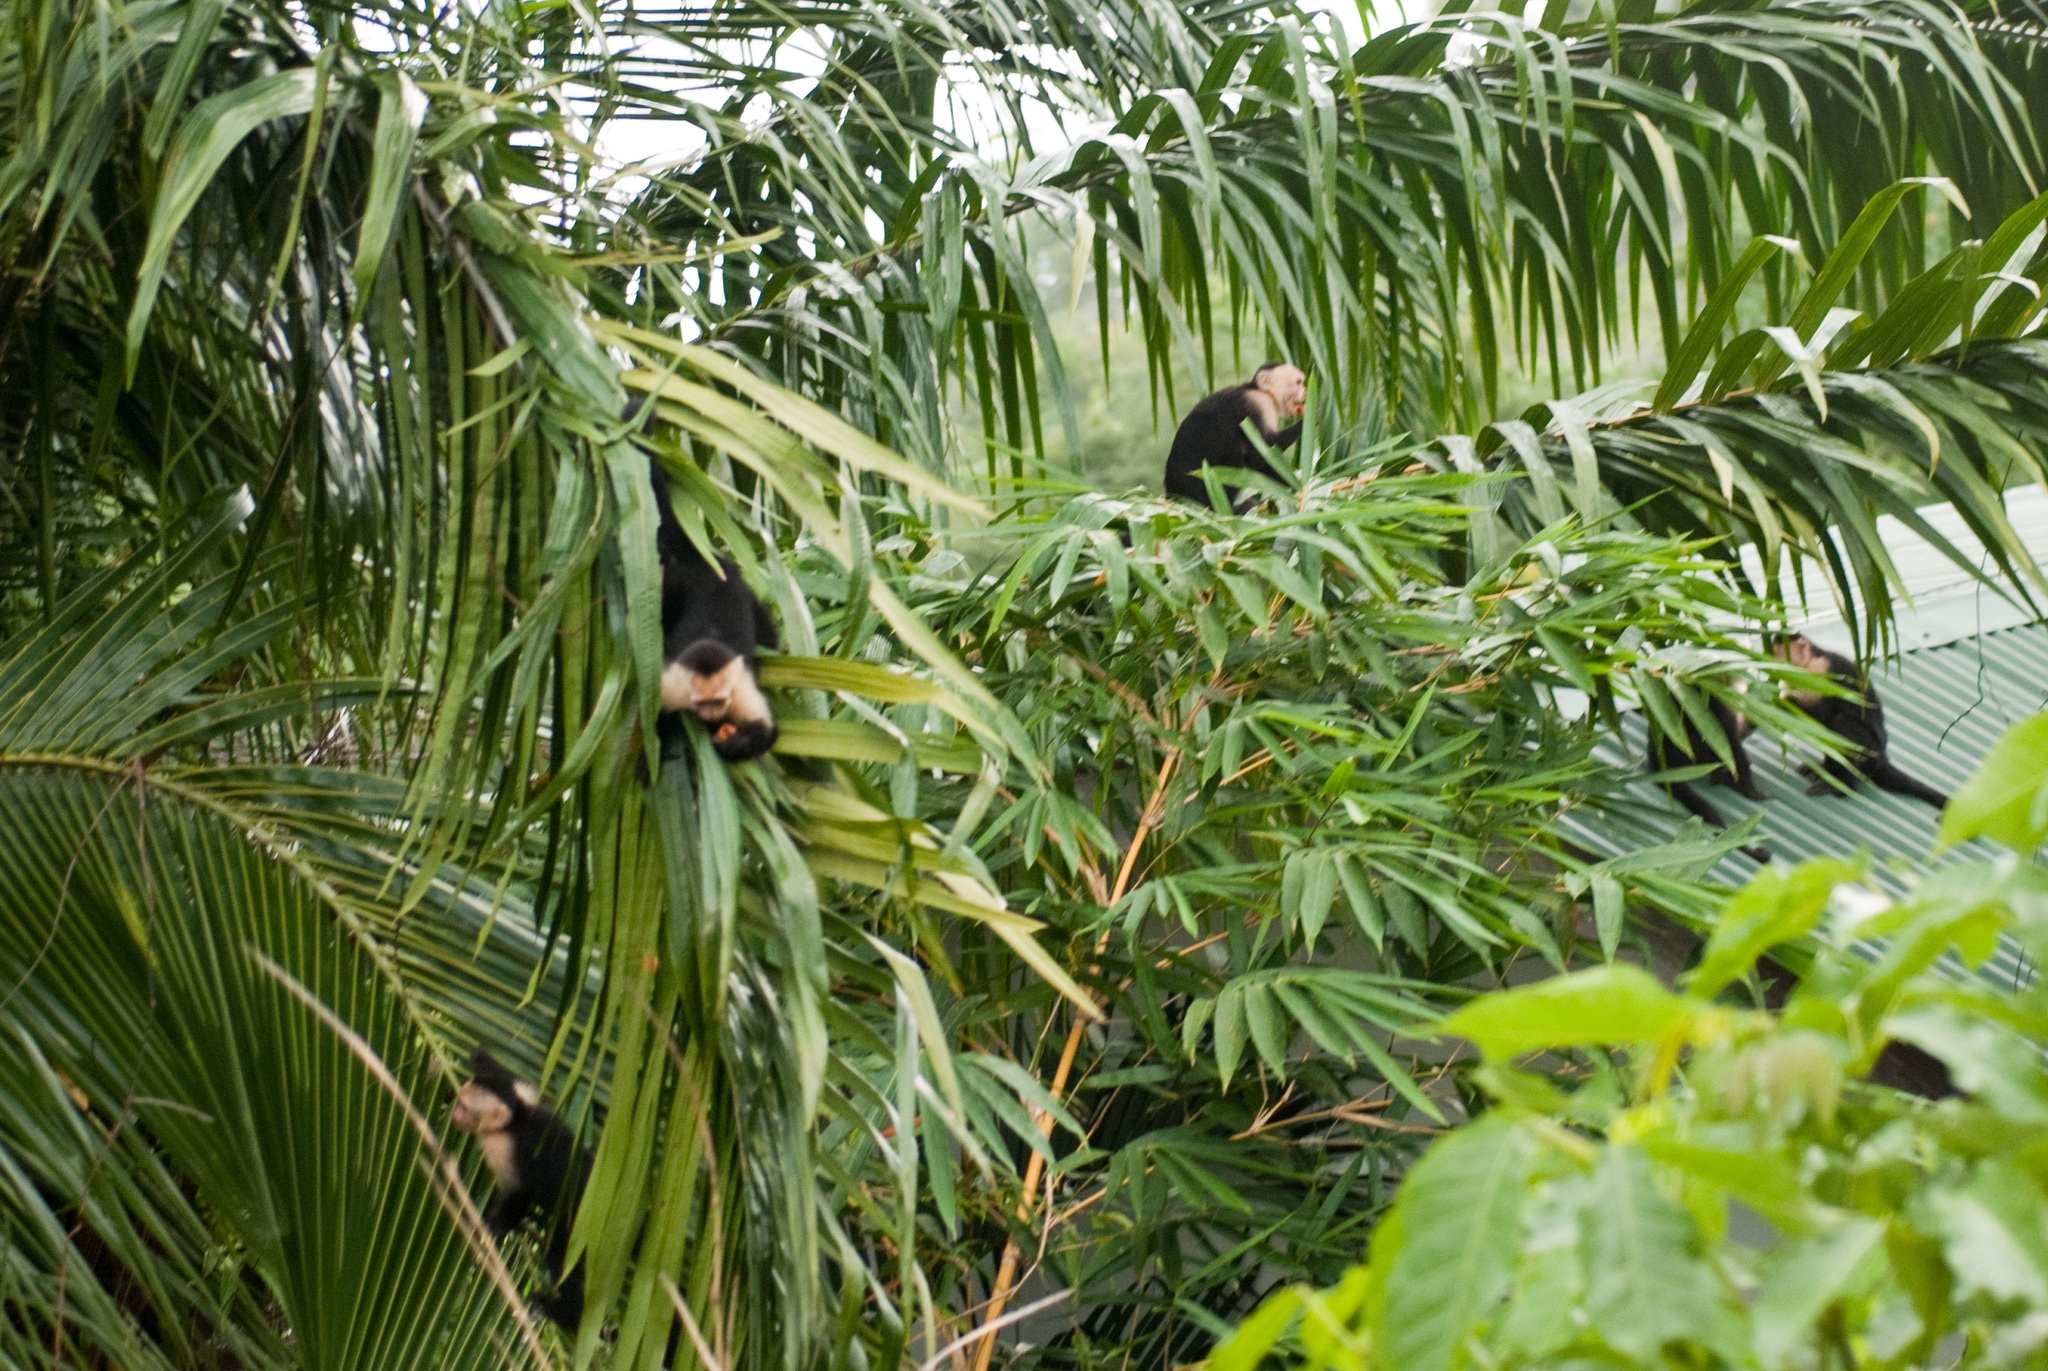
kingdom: Animalia
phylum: Chordata
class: Mammalia
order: Primates
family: Cebidae
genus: Cebus
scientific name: Cebus imitator
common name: Panamanian white-faced capuchin
